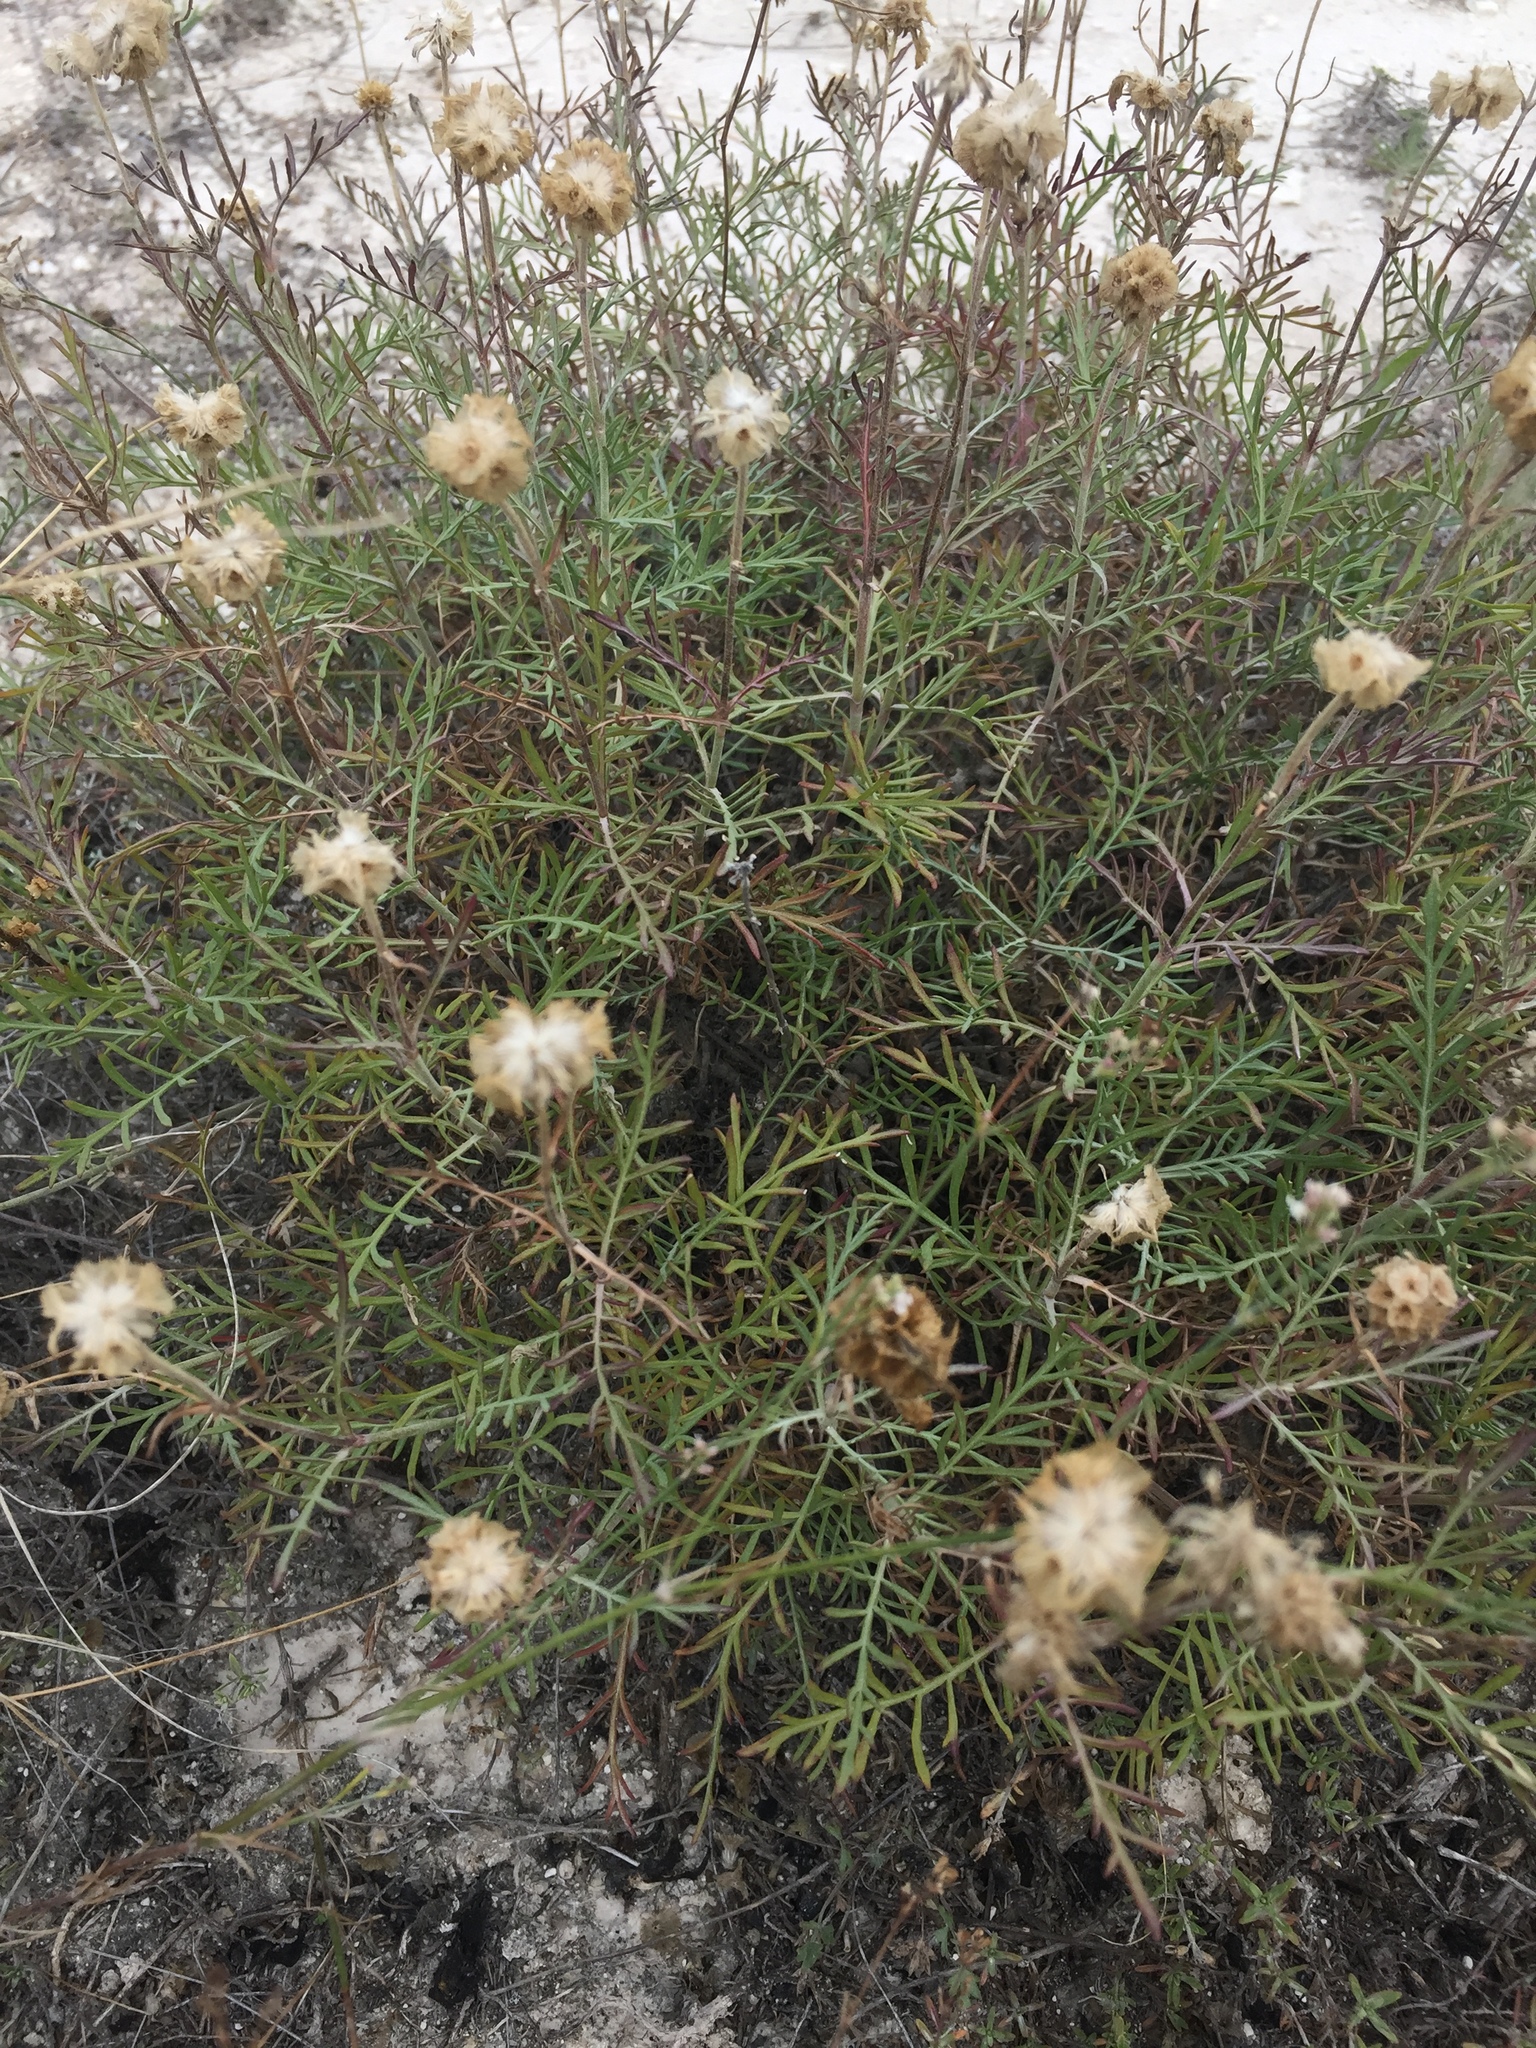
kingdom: Plantae
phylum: Tracheophyta
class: Magnoliopsida
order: Dipsacales
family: Caprifoliaceae
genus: Lomelosia
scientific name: Lomelosia isetensis
